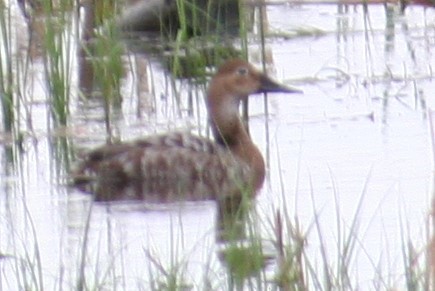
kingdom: Animalia
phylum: Chordata
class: Aves
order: Anseriformes
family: Anatidae
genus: Aythya
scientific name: Aythya valisineria
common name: Canvasback
